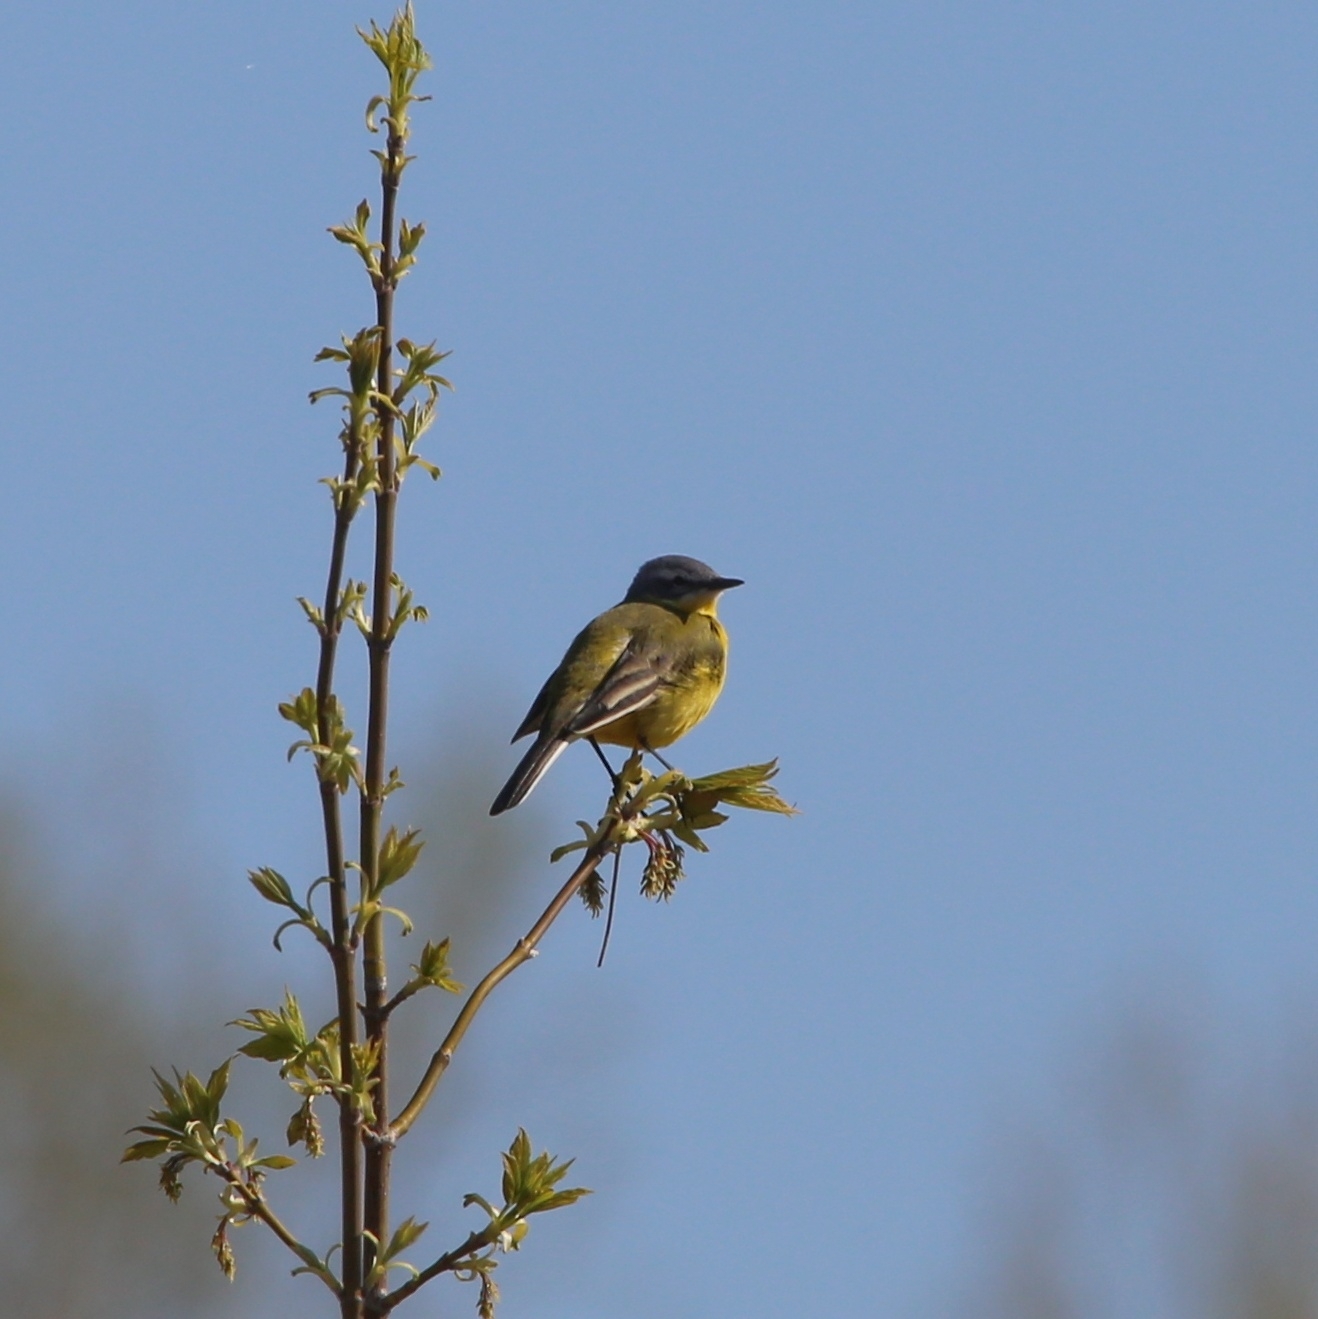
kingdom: Animalia
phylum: Chordata
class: Aves
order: Passeriformes
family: Motacillidae
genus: Motacilla
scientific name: Motacilla flava
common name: Western yellow wagtail
